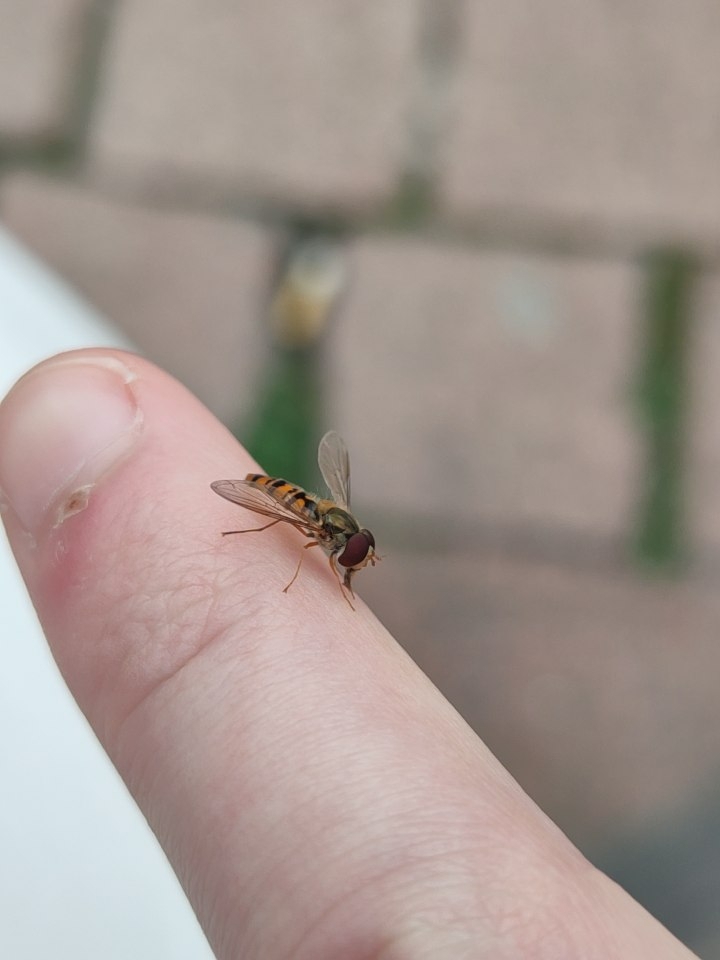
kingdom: Animalia
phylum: Arthropoda
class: Insecta
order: Diptera
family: Syrphidae
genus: Episyrphus
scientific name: Episyrphus balteatus
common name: Marmalade hoverfly
